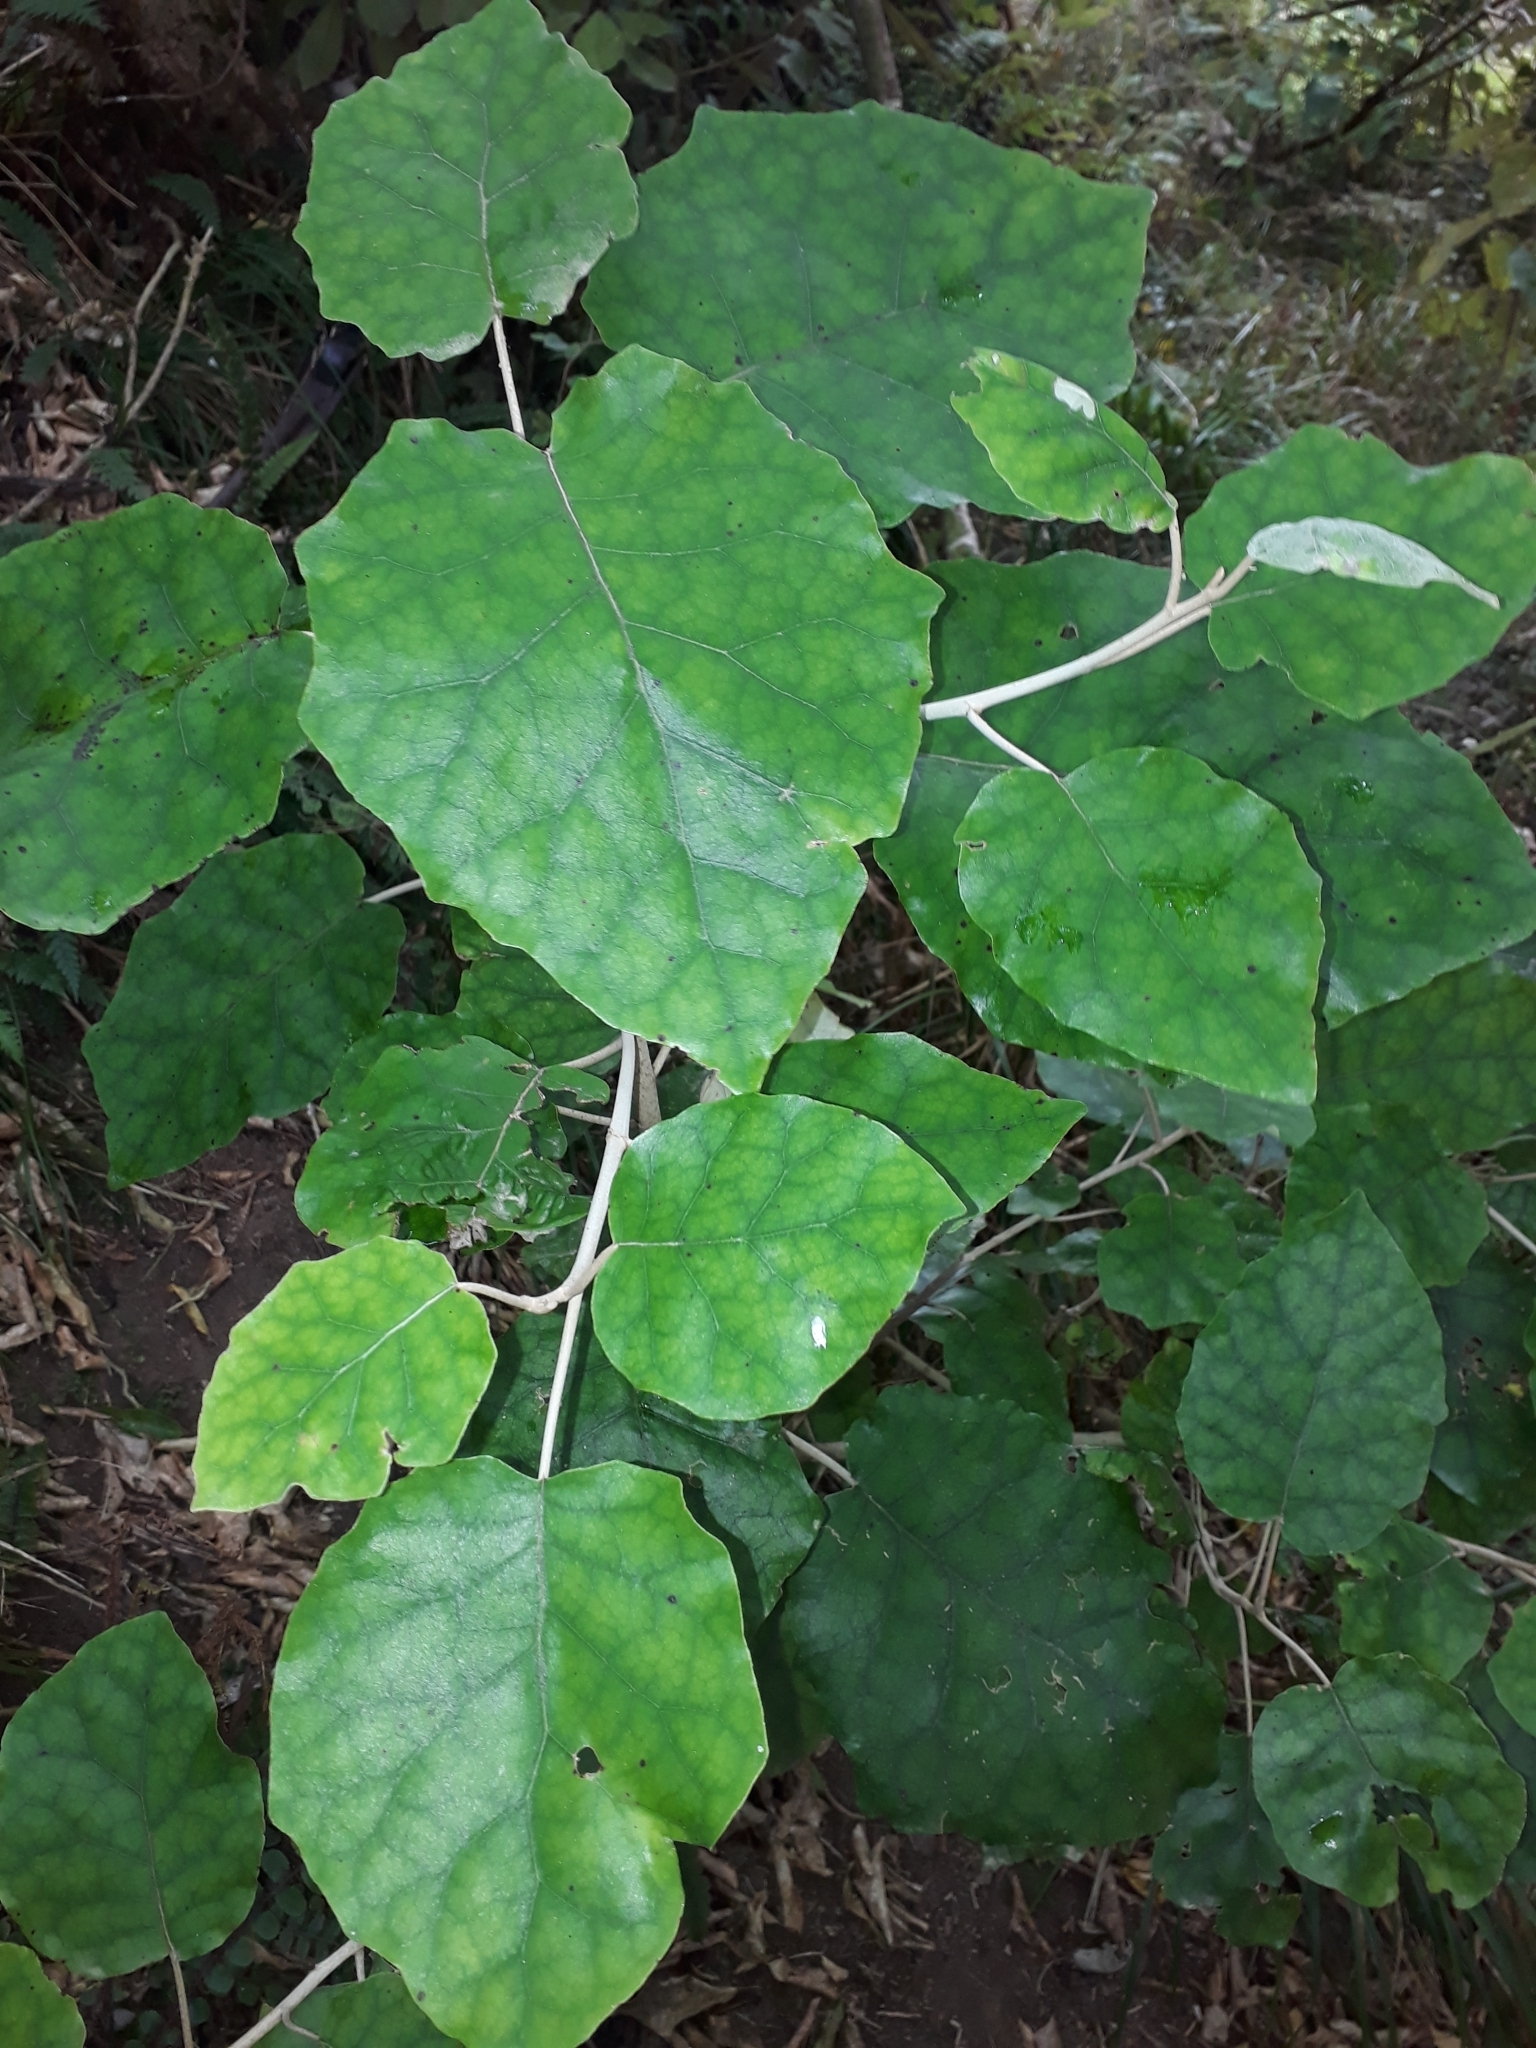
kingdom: Plantae
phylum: Tracheophyta
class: Magnoliopsida
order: Asterales
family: Asteraceae
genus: Brachyglottis
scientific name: Brachyglottis repanda
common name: Hedge ragwort
